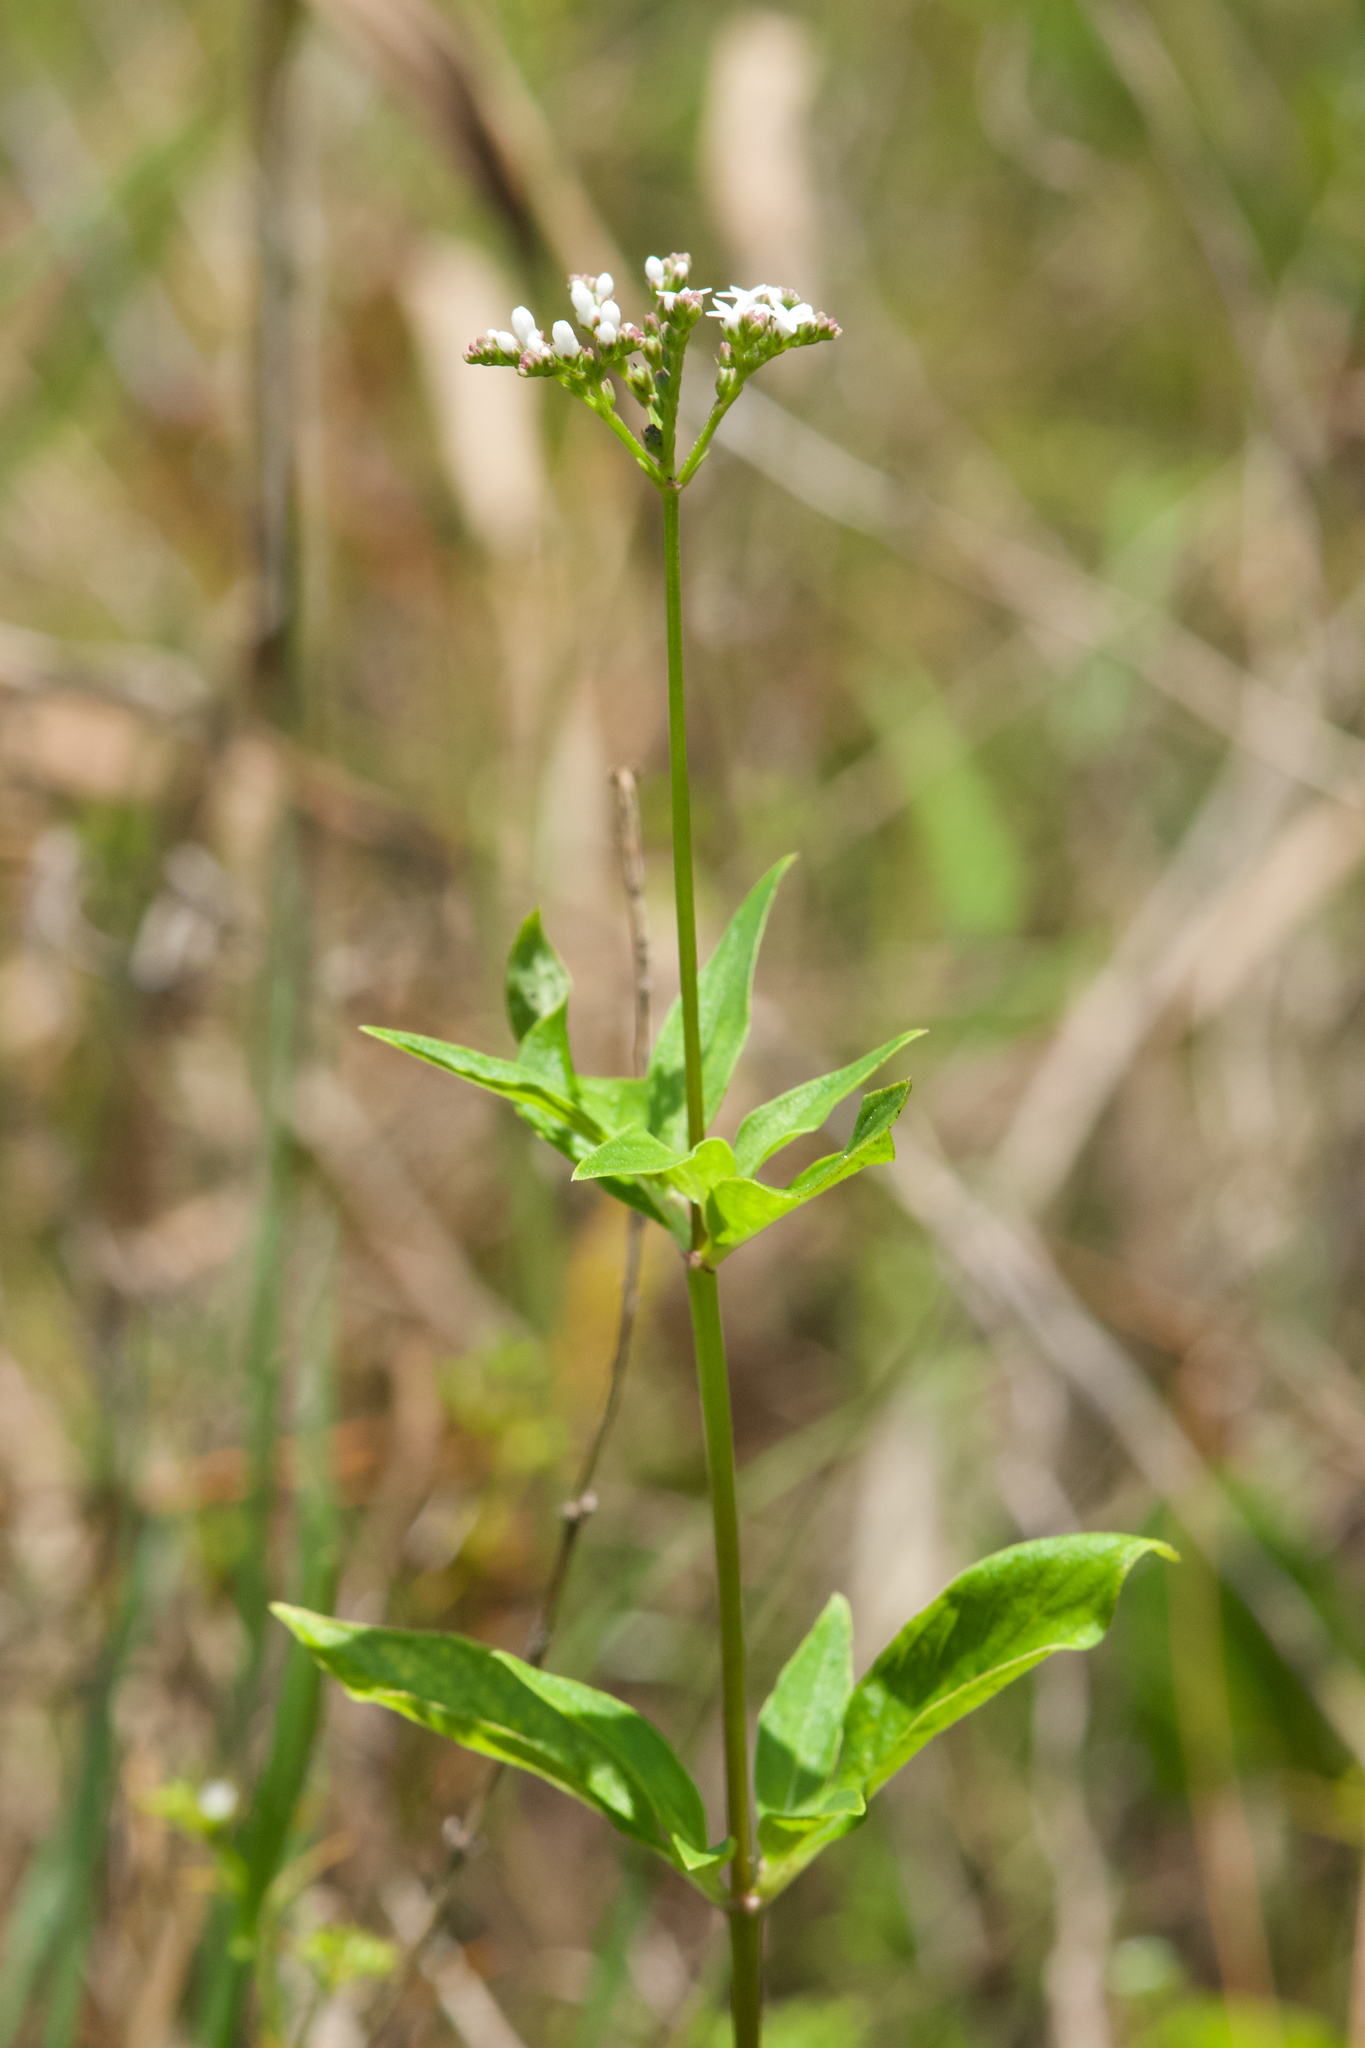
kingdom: Plantae
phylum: Tracheophyta
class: Magnoliopsida
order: Gentianales
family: Loganiaceae
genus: Mitreola
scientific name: Mitreola petiolata
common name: Lax hornpod
